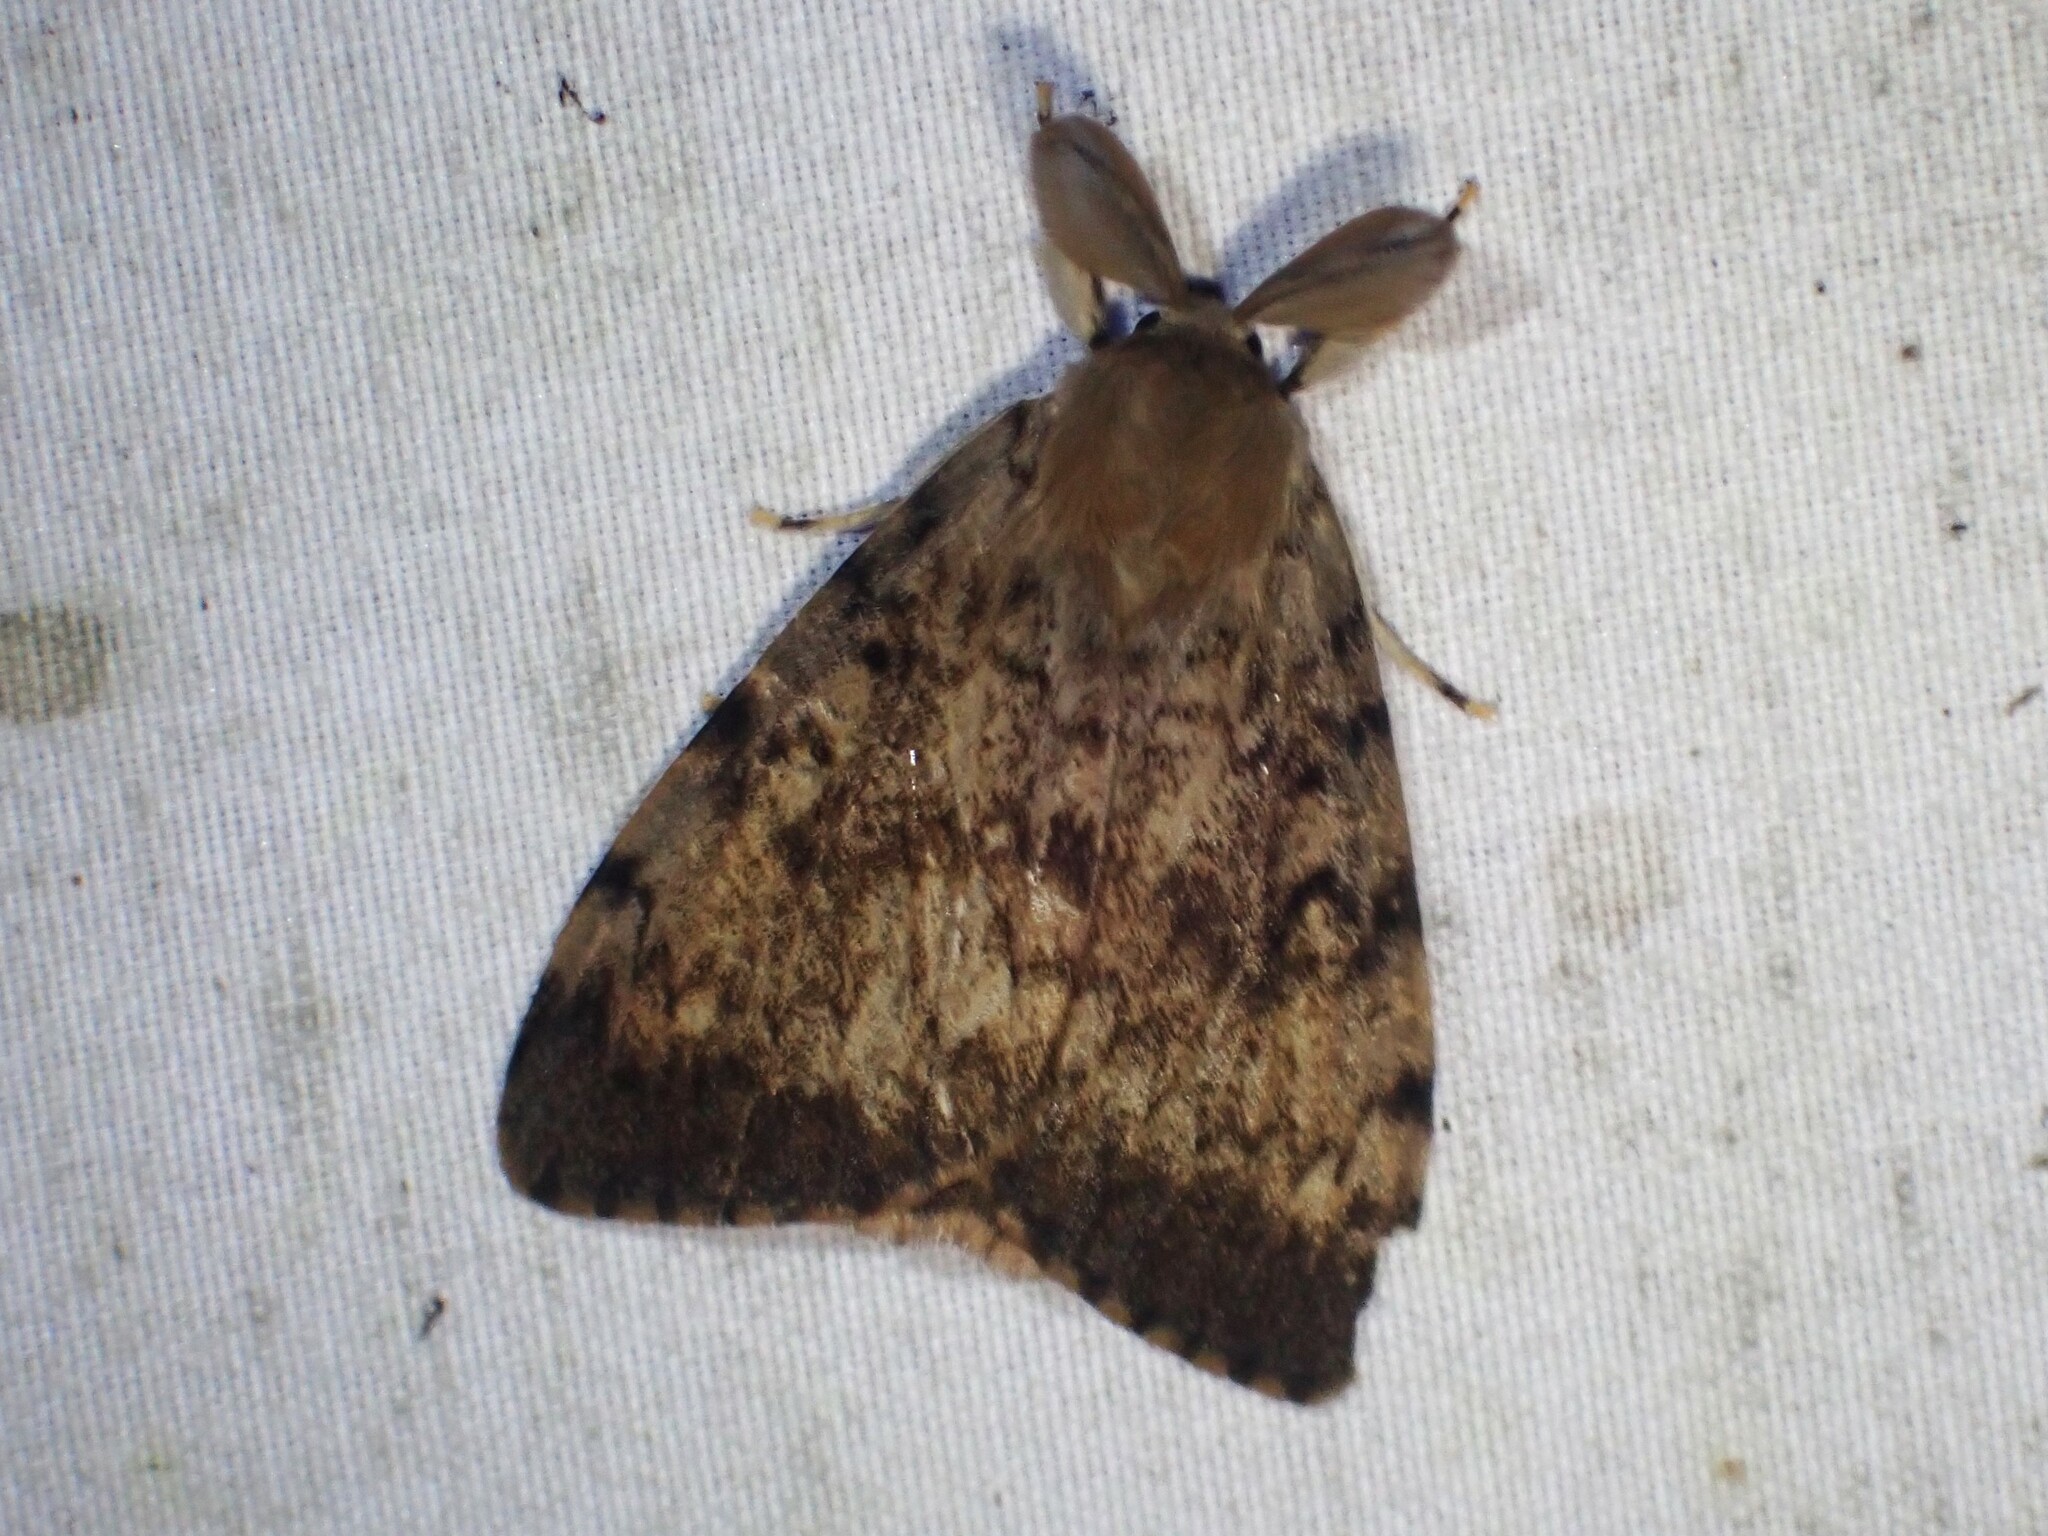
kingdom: Animalia
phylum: Arthropoda
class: Insecta
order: Lepidoptera
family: Erebidae
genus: Lymantria
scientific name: Lymantria dispar
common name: Gypsy moth
